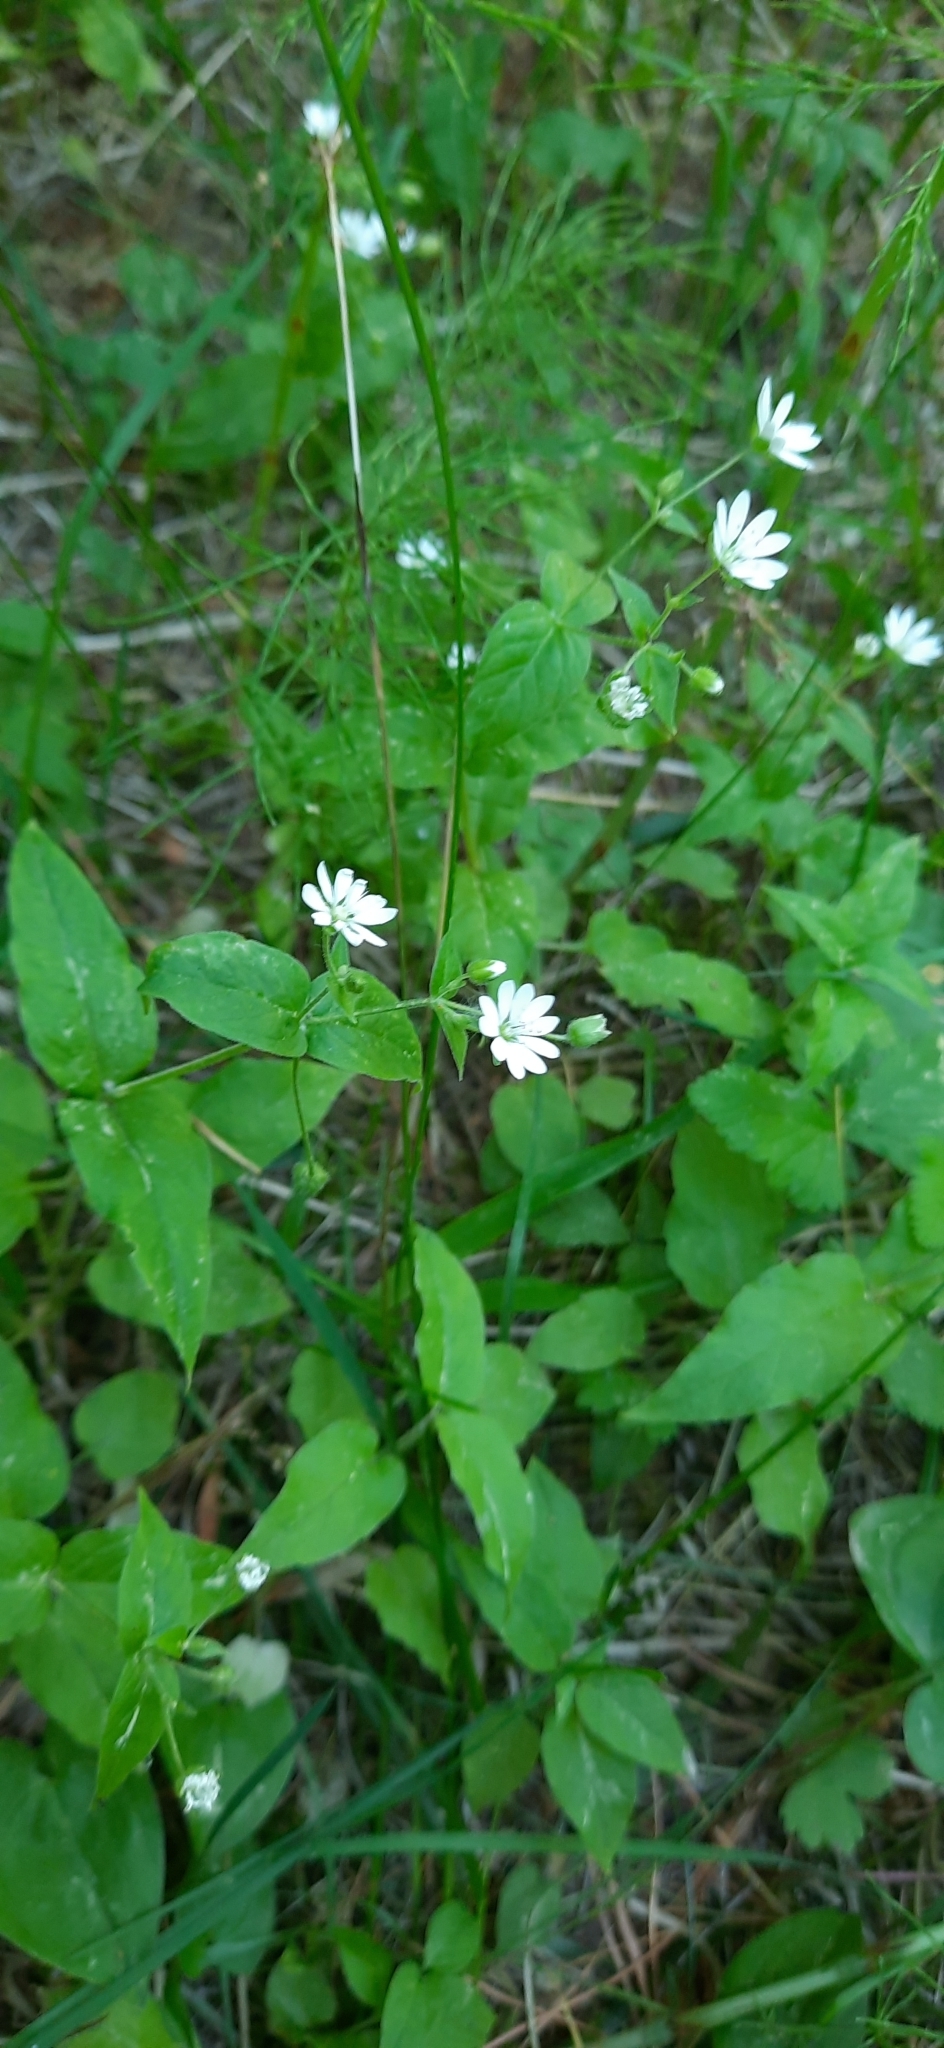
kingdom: Plantae
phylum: Tracheophyta
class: Magnoliopsida
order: Caryophyllales
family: Caryophyllaceae
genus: Stellaria
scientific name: Stellaria bungeana
